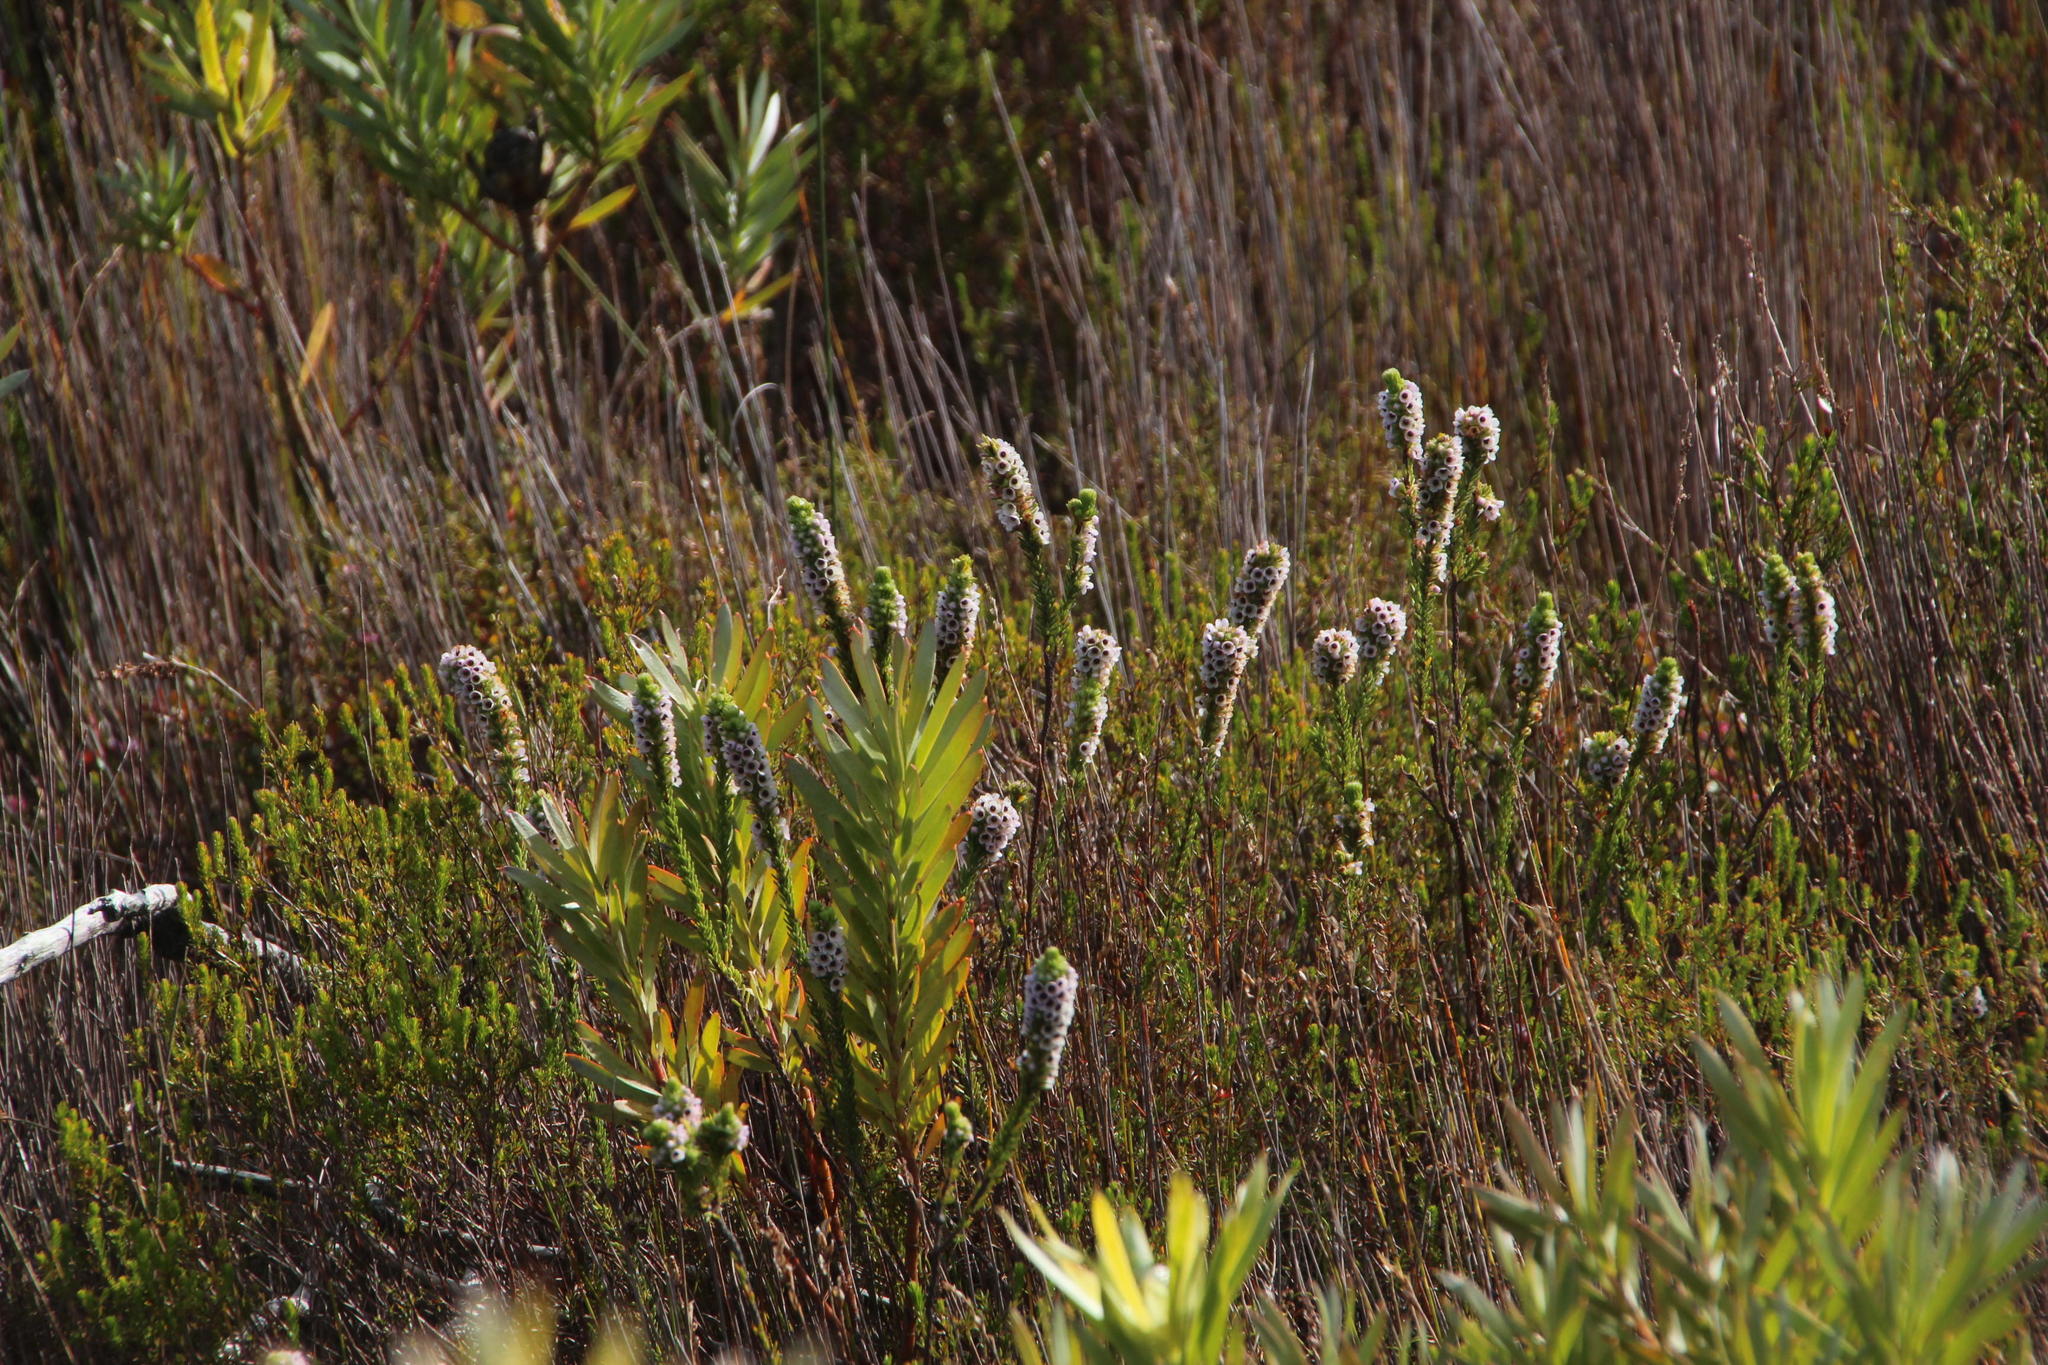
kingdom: Plantae
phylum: Tracheophyta
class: Magnoliopsida
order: Ericales
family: Ericaceae
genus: Erica
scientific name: Erica pyxidiflora
